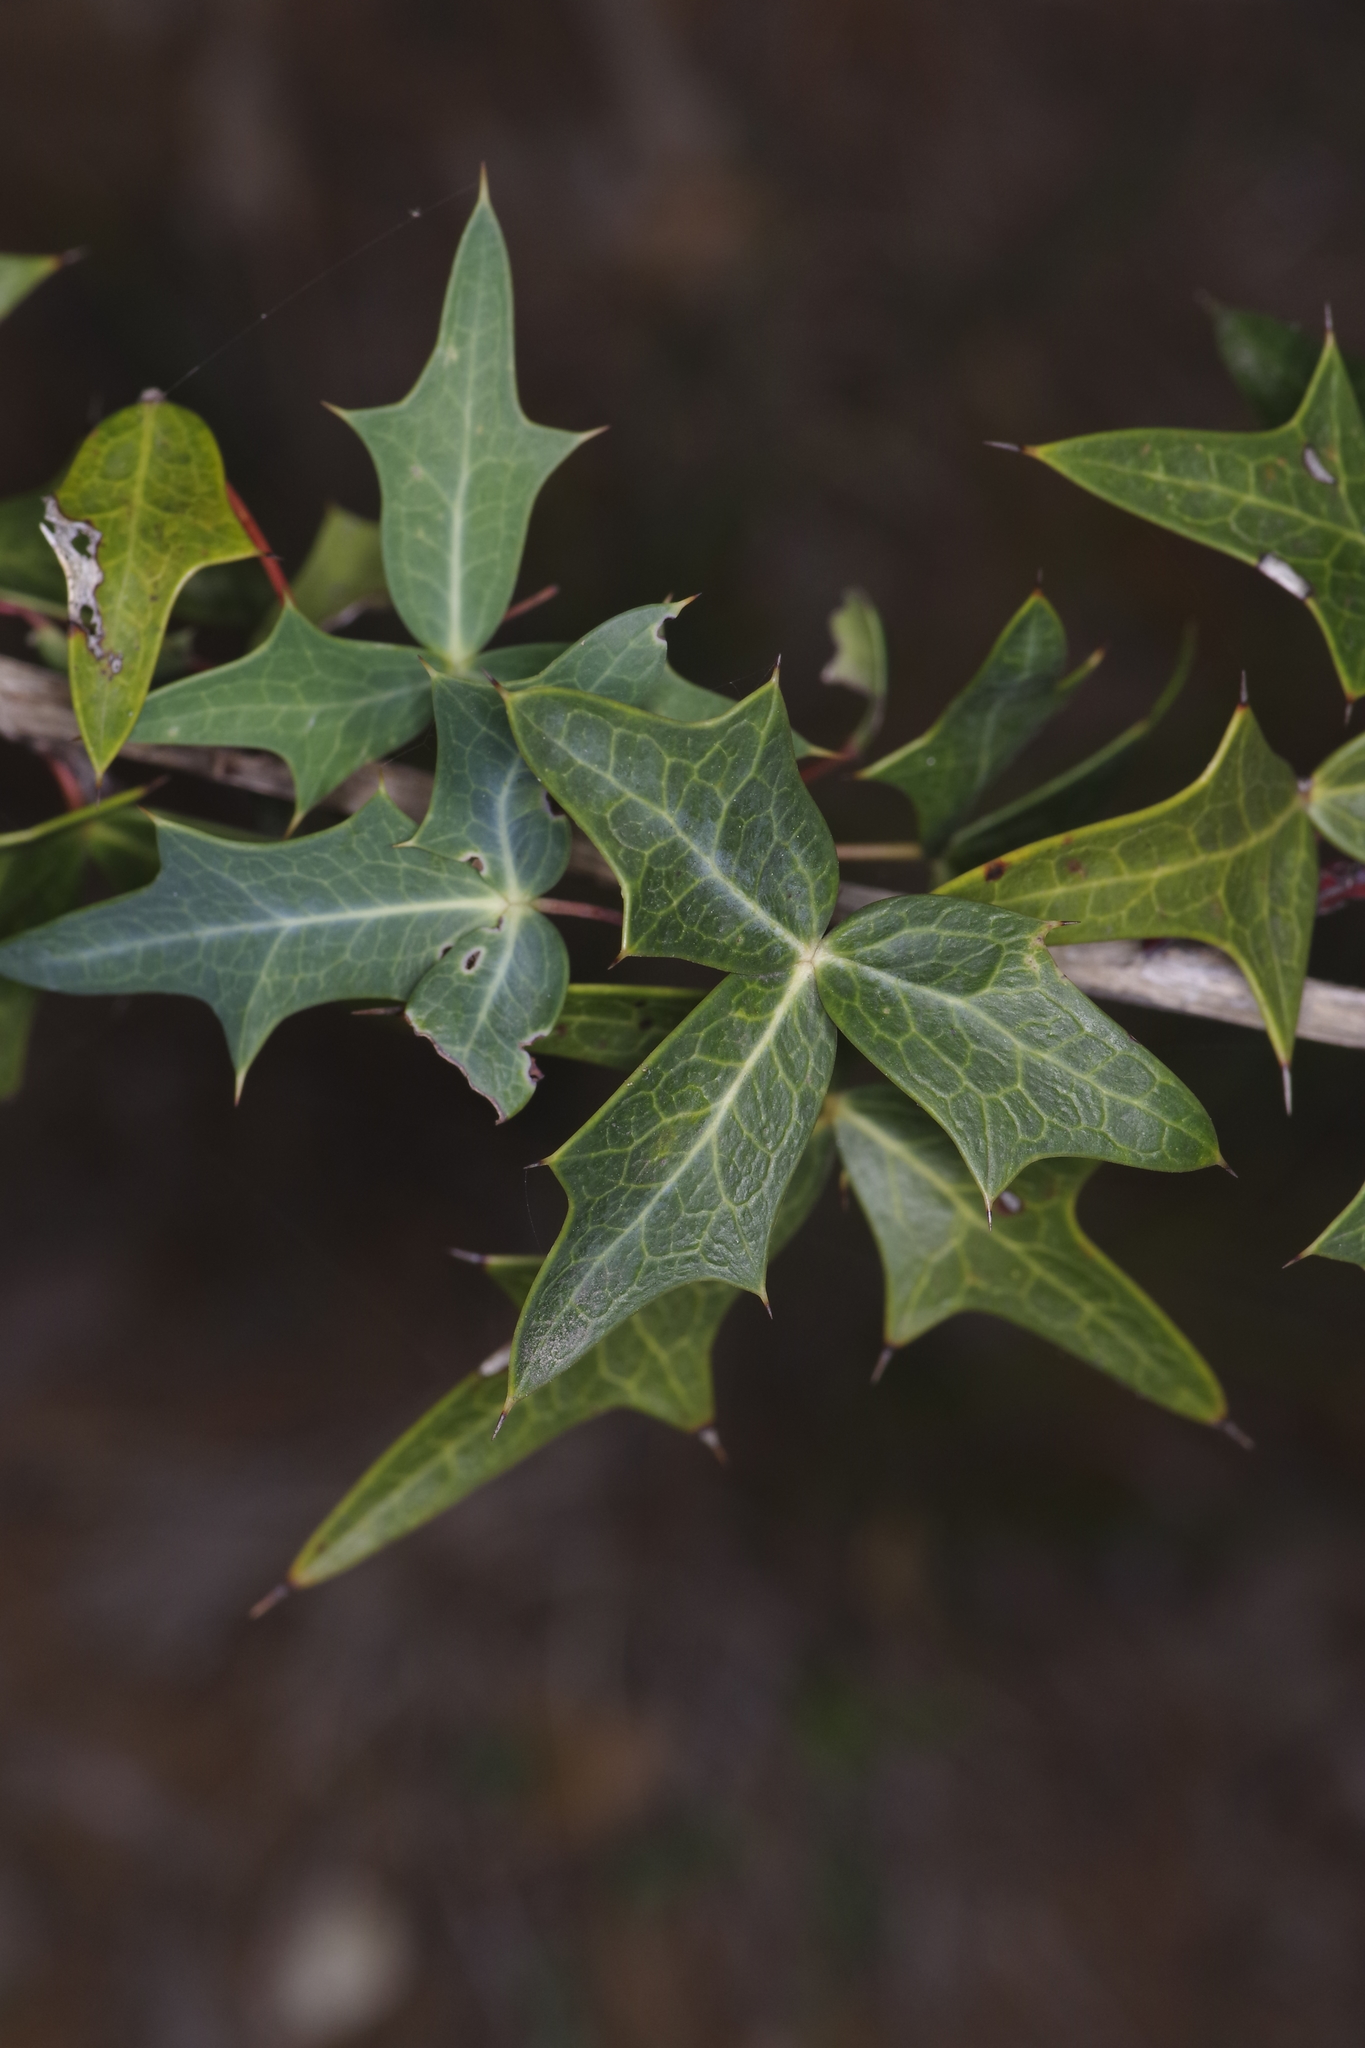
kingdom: Plantae
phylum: Tracheophyta
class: Magnoliopsida
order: Ranunculales
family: Berberidaceae
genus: Alloberberis
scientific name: Alloberberis trifoliolata
